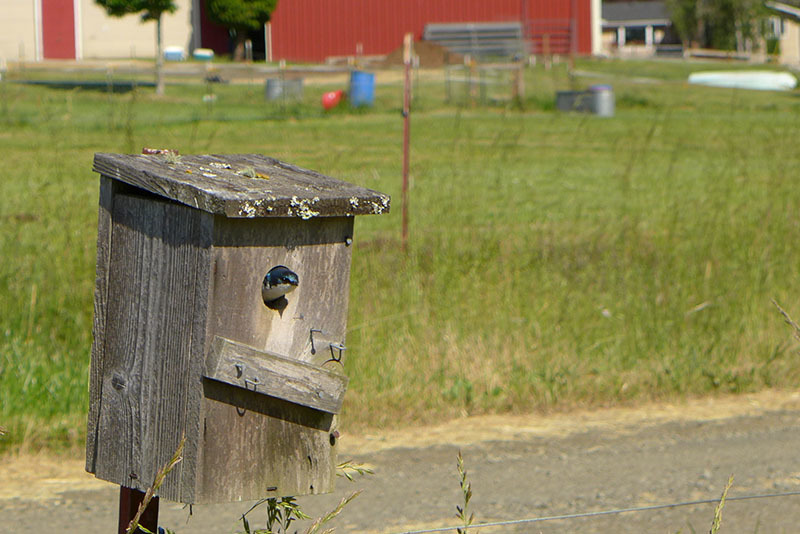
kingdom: Animalia
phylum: Chordata
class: Aves
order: Passeriformes
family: Hirundinidae
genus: Tachycineta
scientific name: Tachycineta bicolor
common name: Tree swallow
